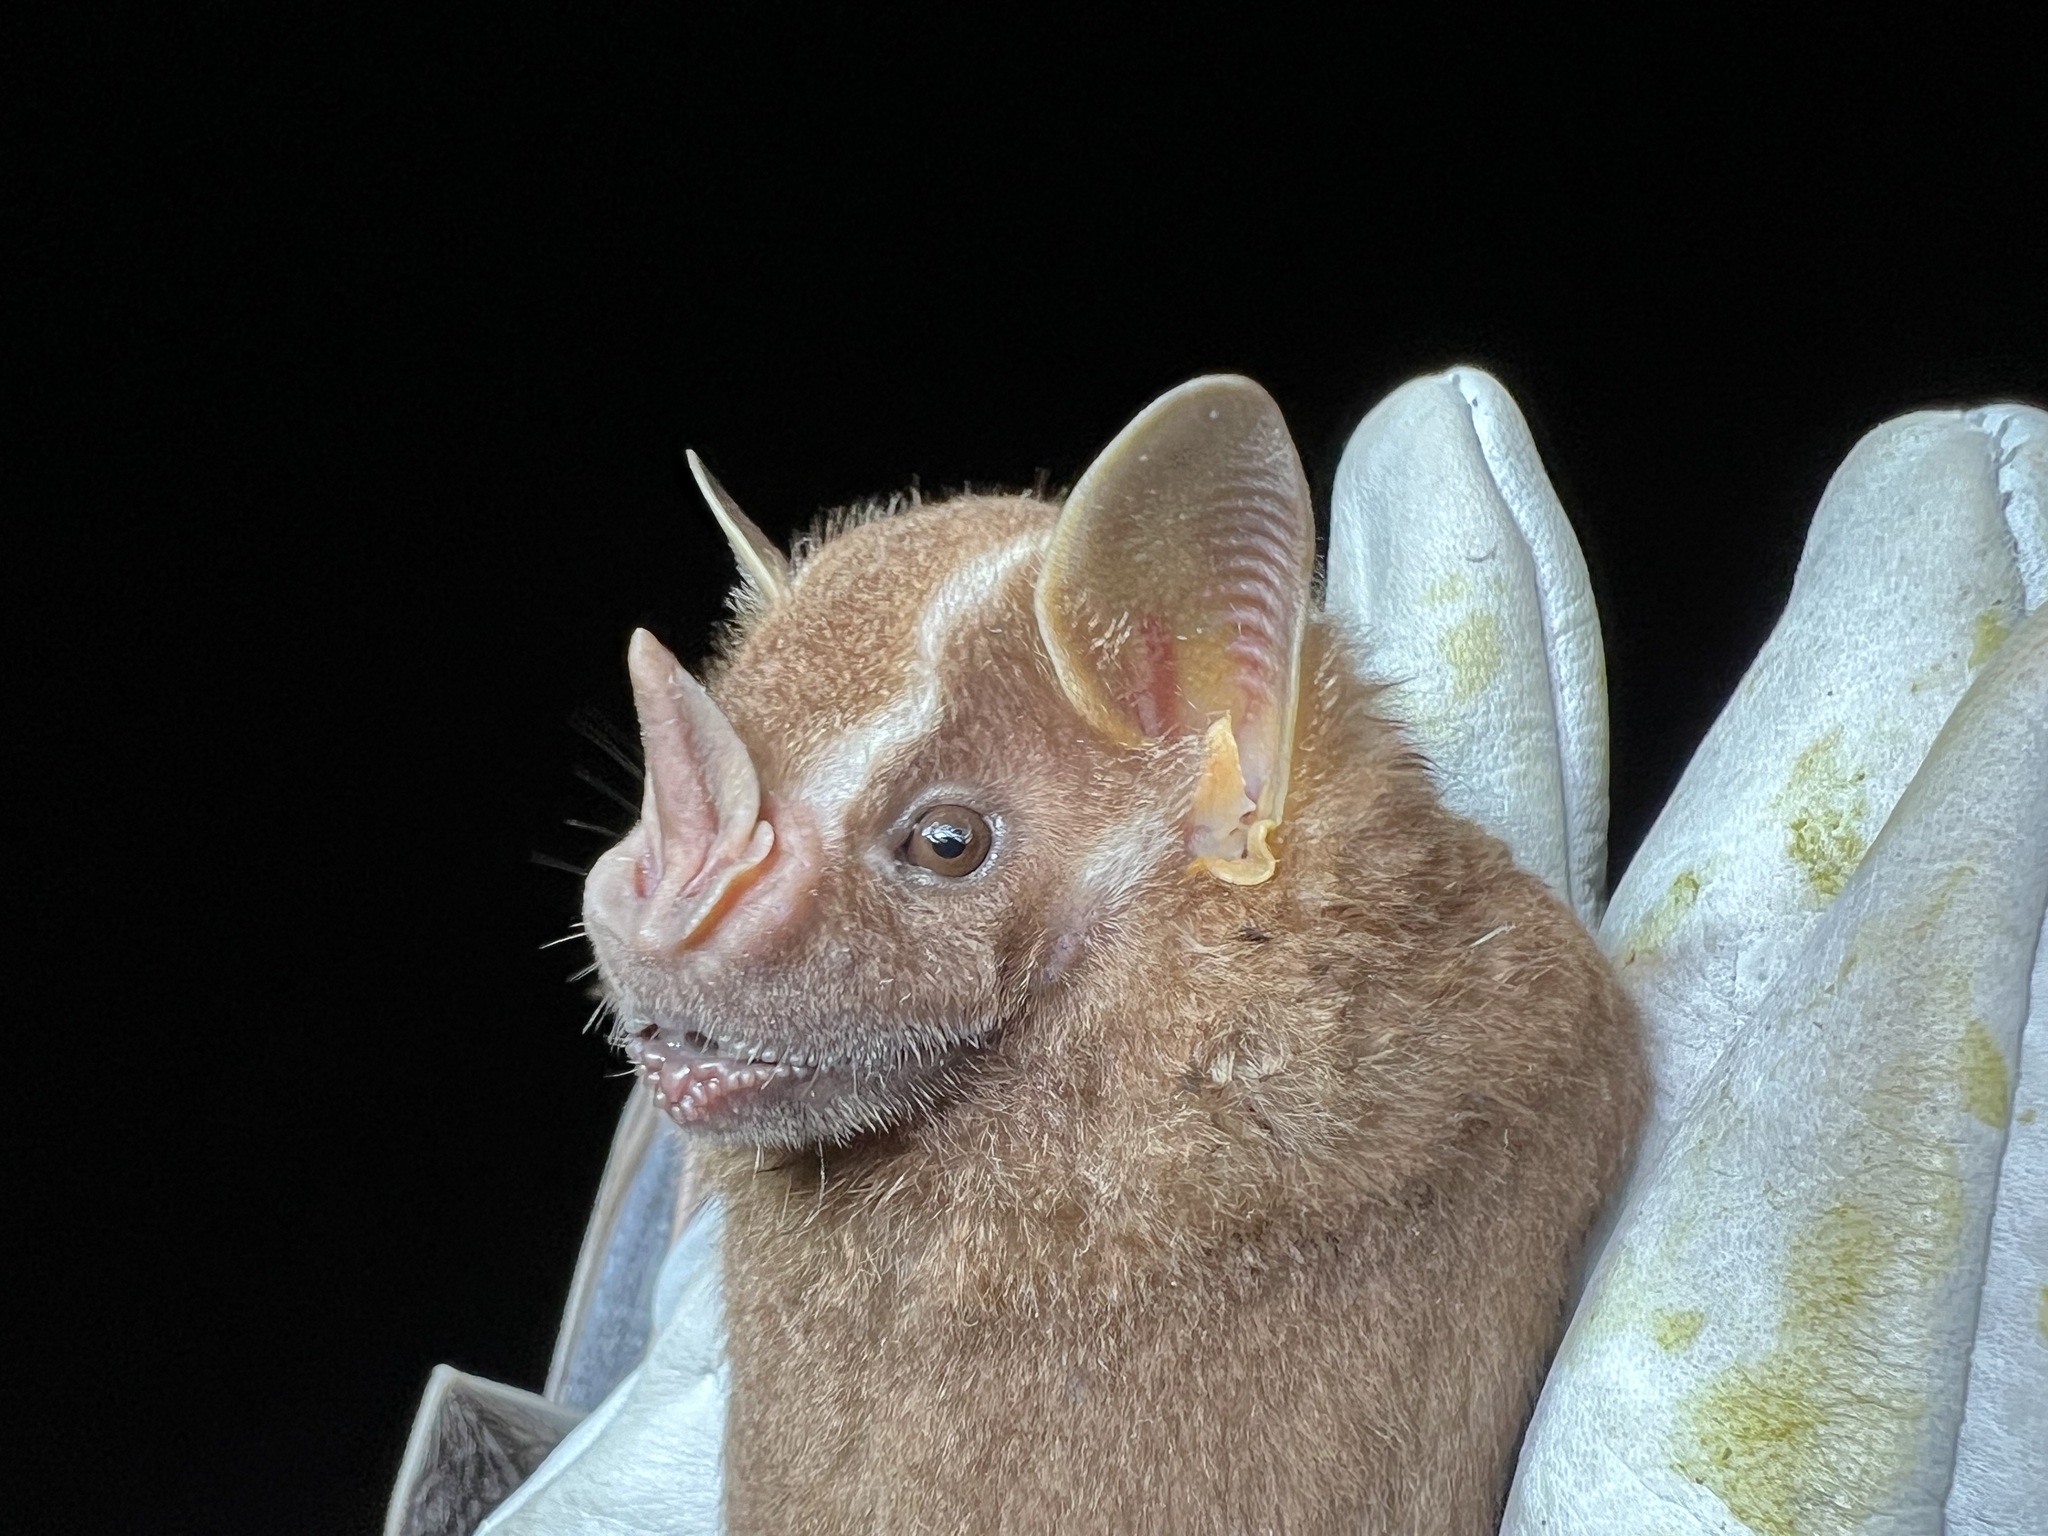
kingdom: Animalia
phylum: Chordata
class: Mammalia
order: Chiroptera
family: Phyllostomidae
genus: Artibeus
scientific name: Artibeus lituratus
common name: Great fruit-eating bat
